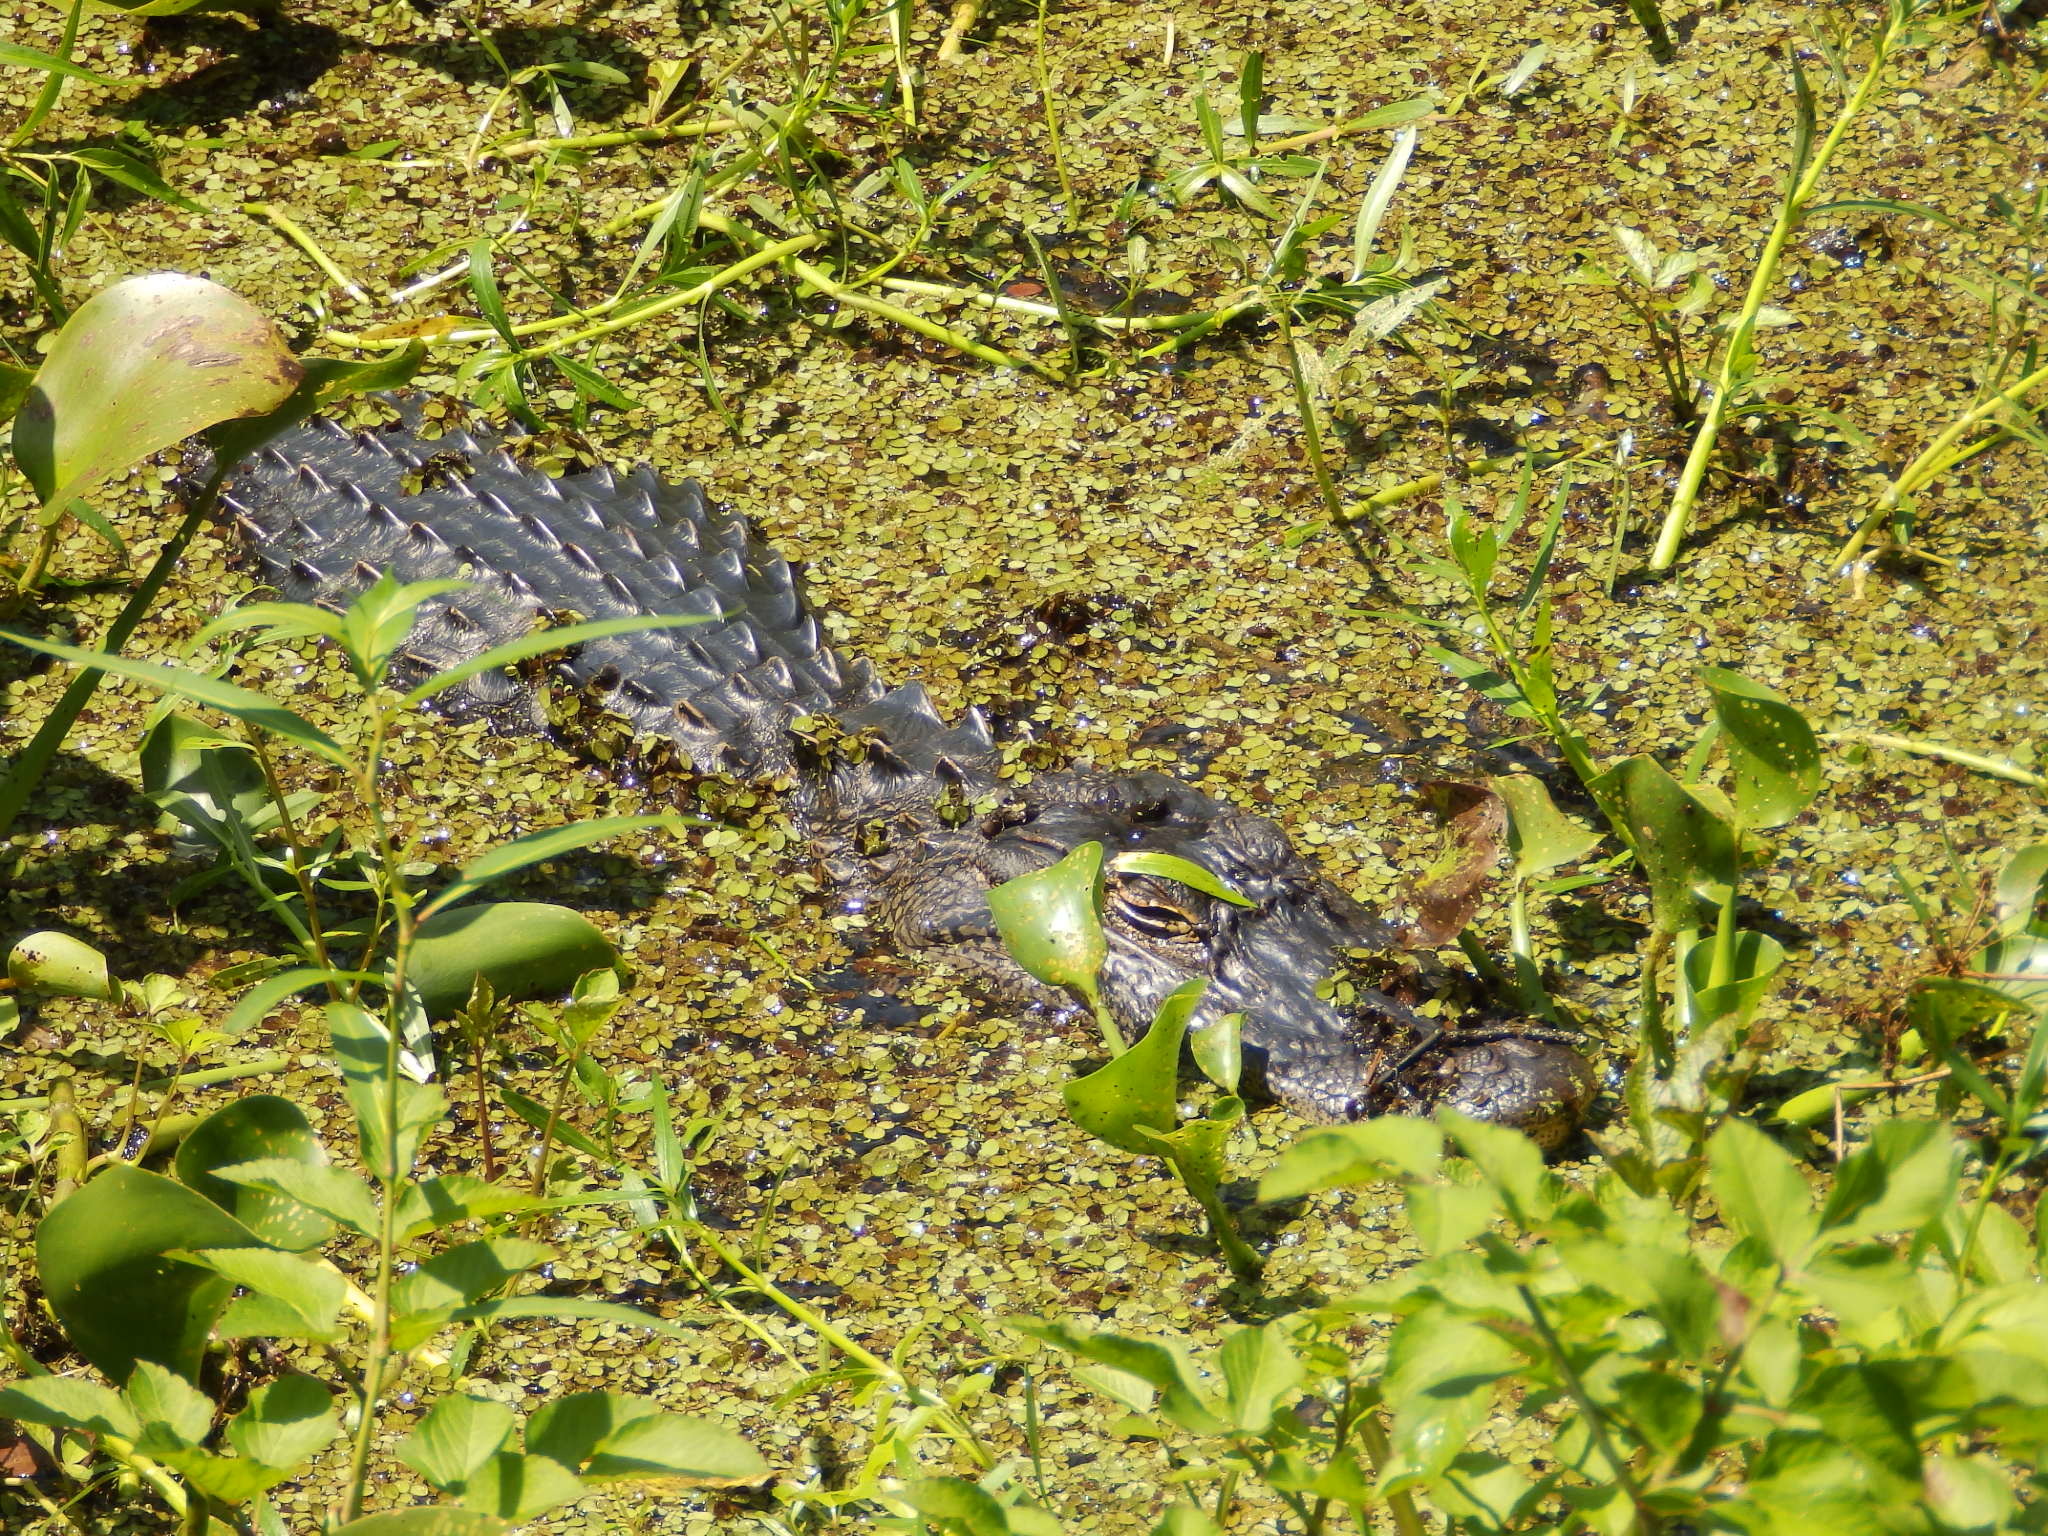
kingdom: Animalia
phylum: Chordata
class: Crocodylia
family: Alligatoridae
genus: Alligator
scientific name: Alligator mississippiensis
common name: American alligator
